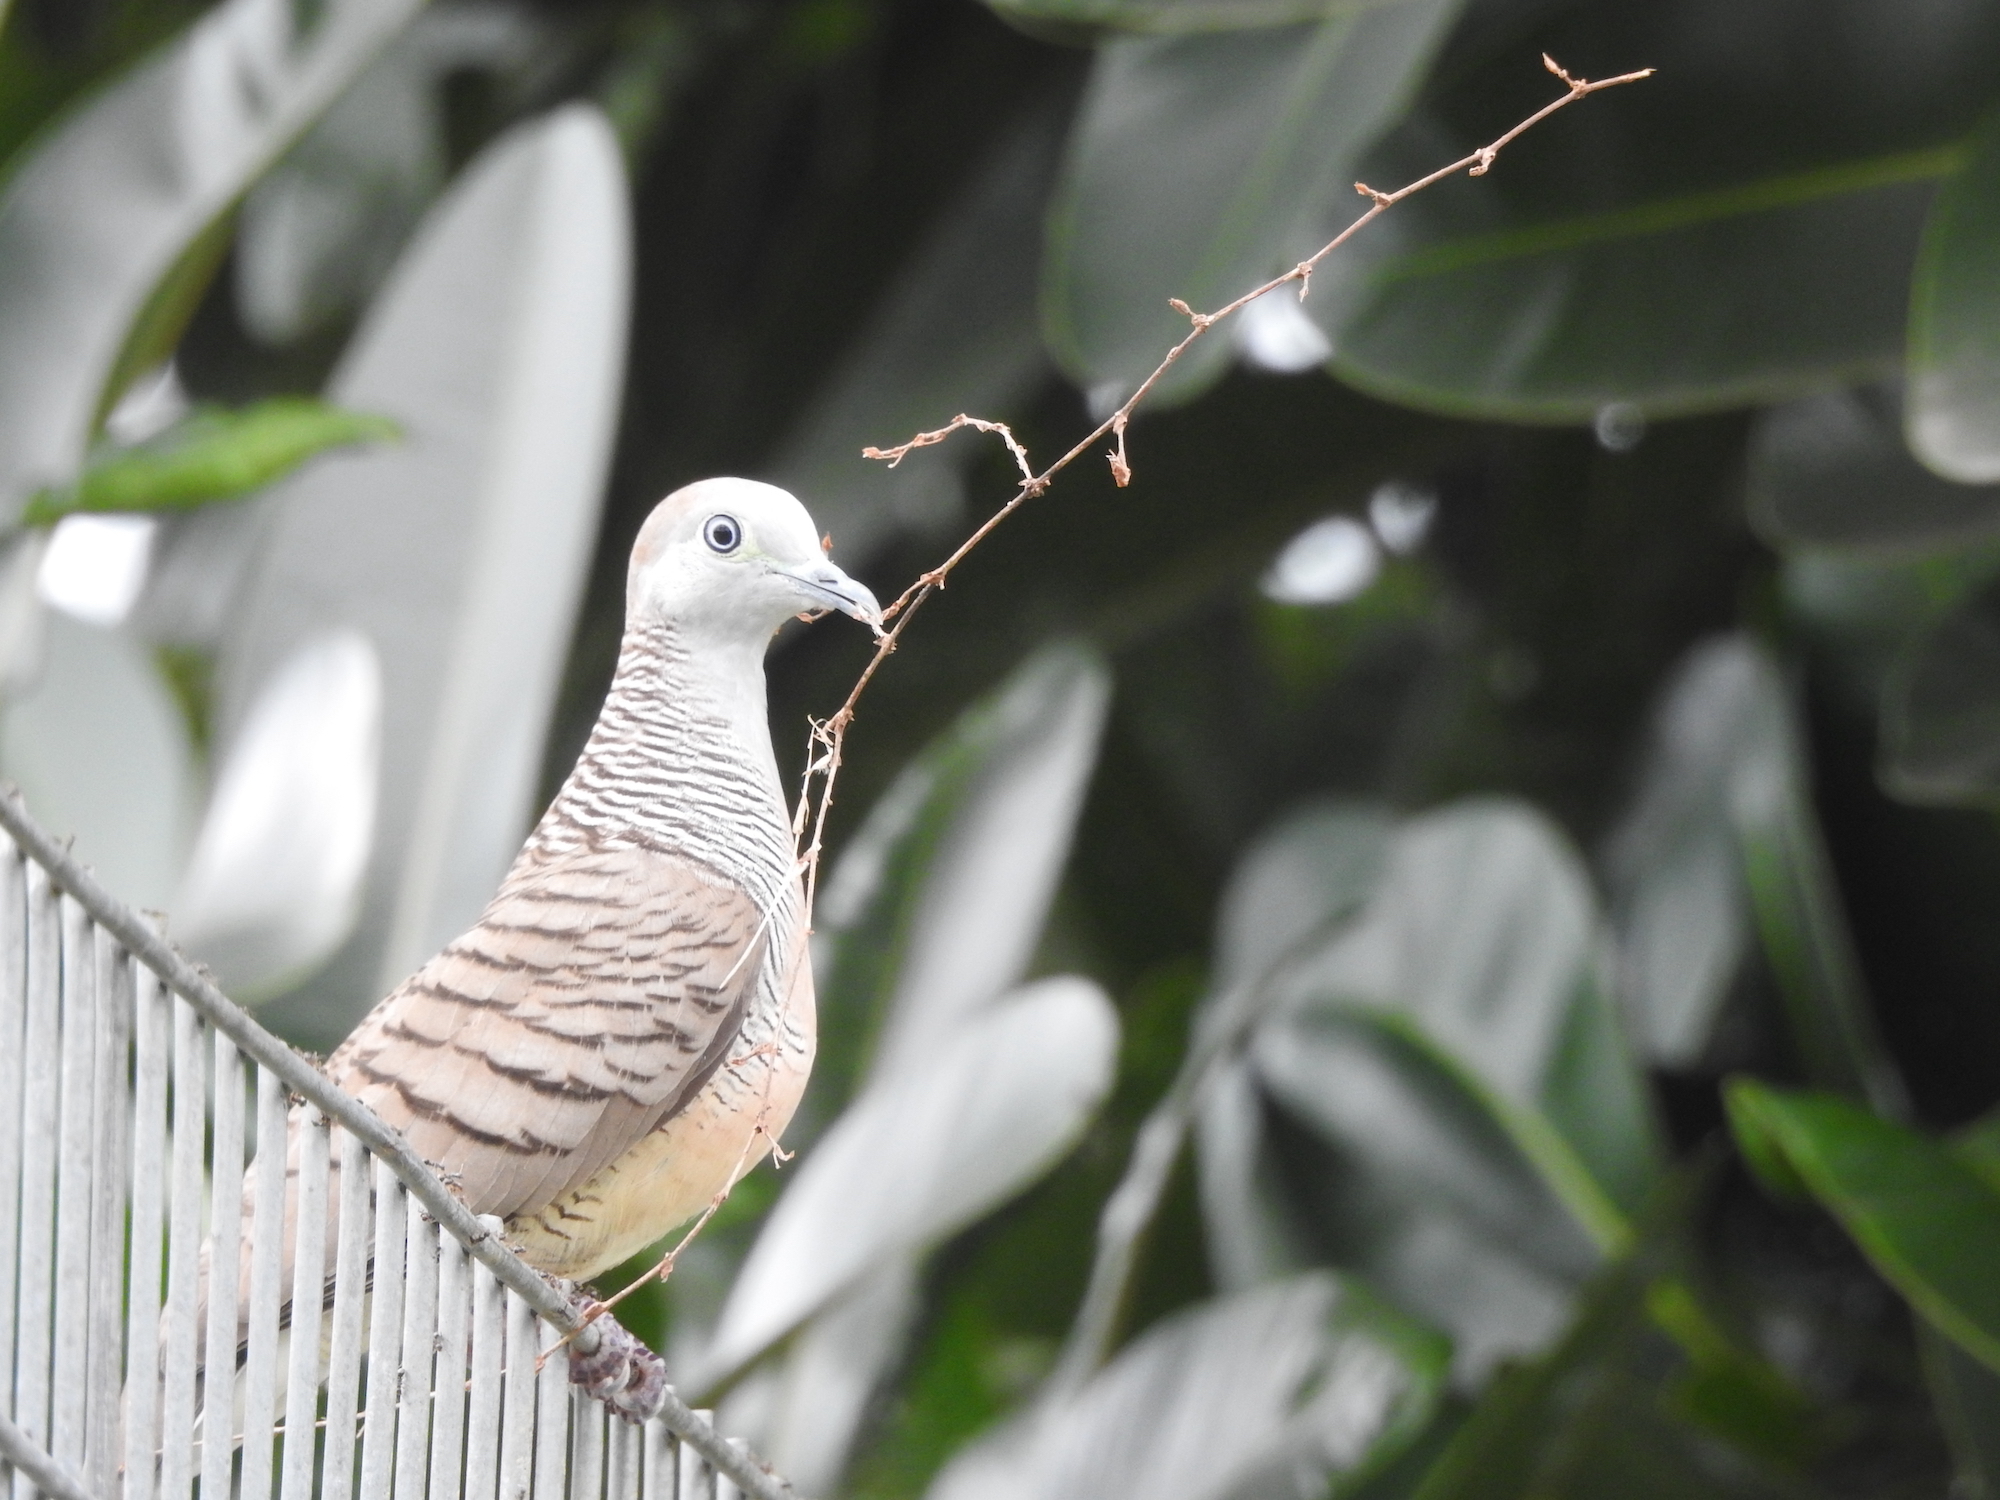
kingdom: Animalia
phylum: Chordata
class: Aves
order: Columbiformes
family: Columbidae
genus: Geopelia
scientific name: Geopelia striata
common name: Zebra dove
